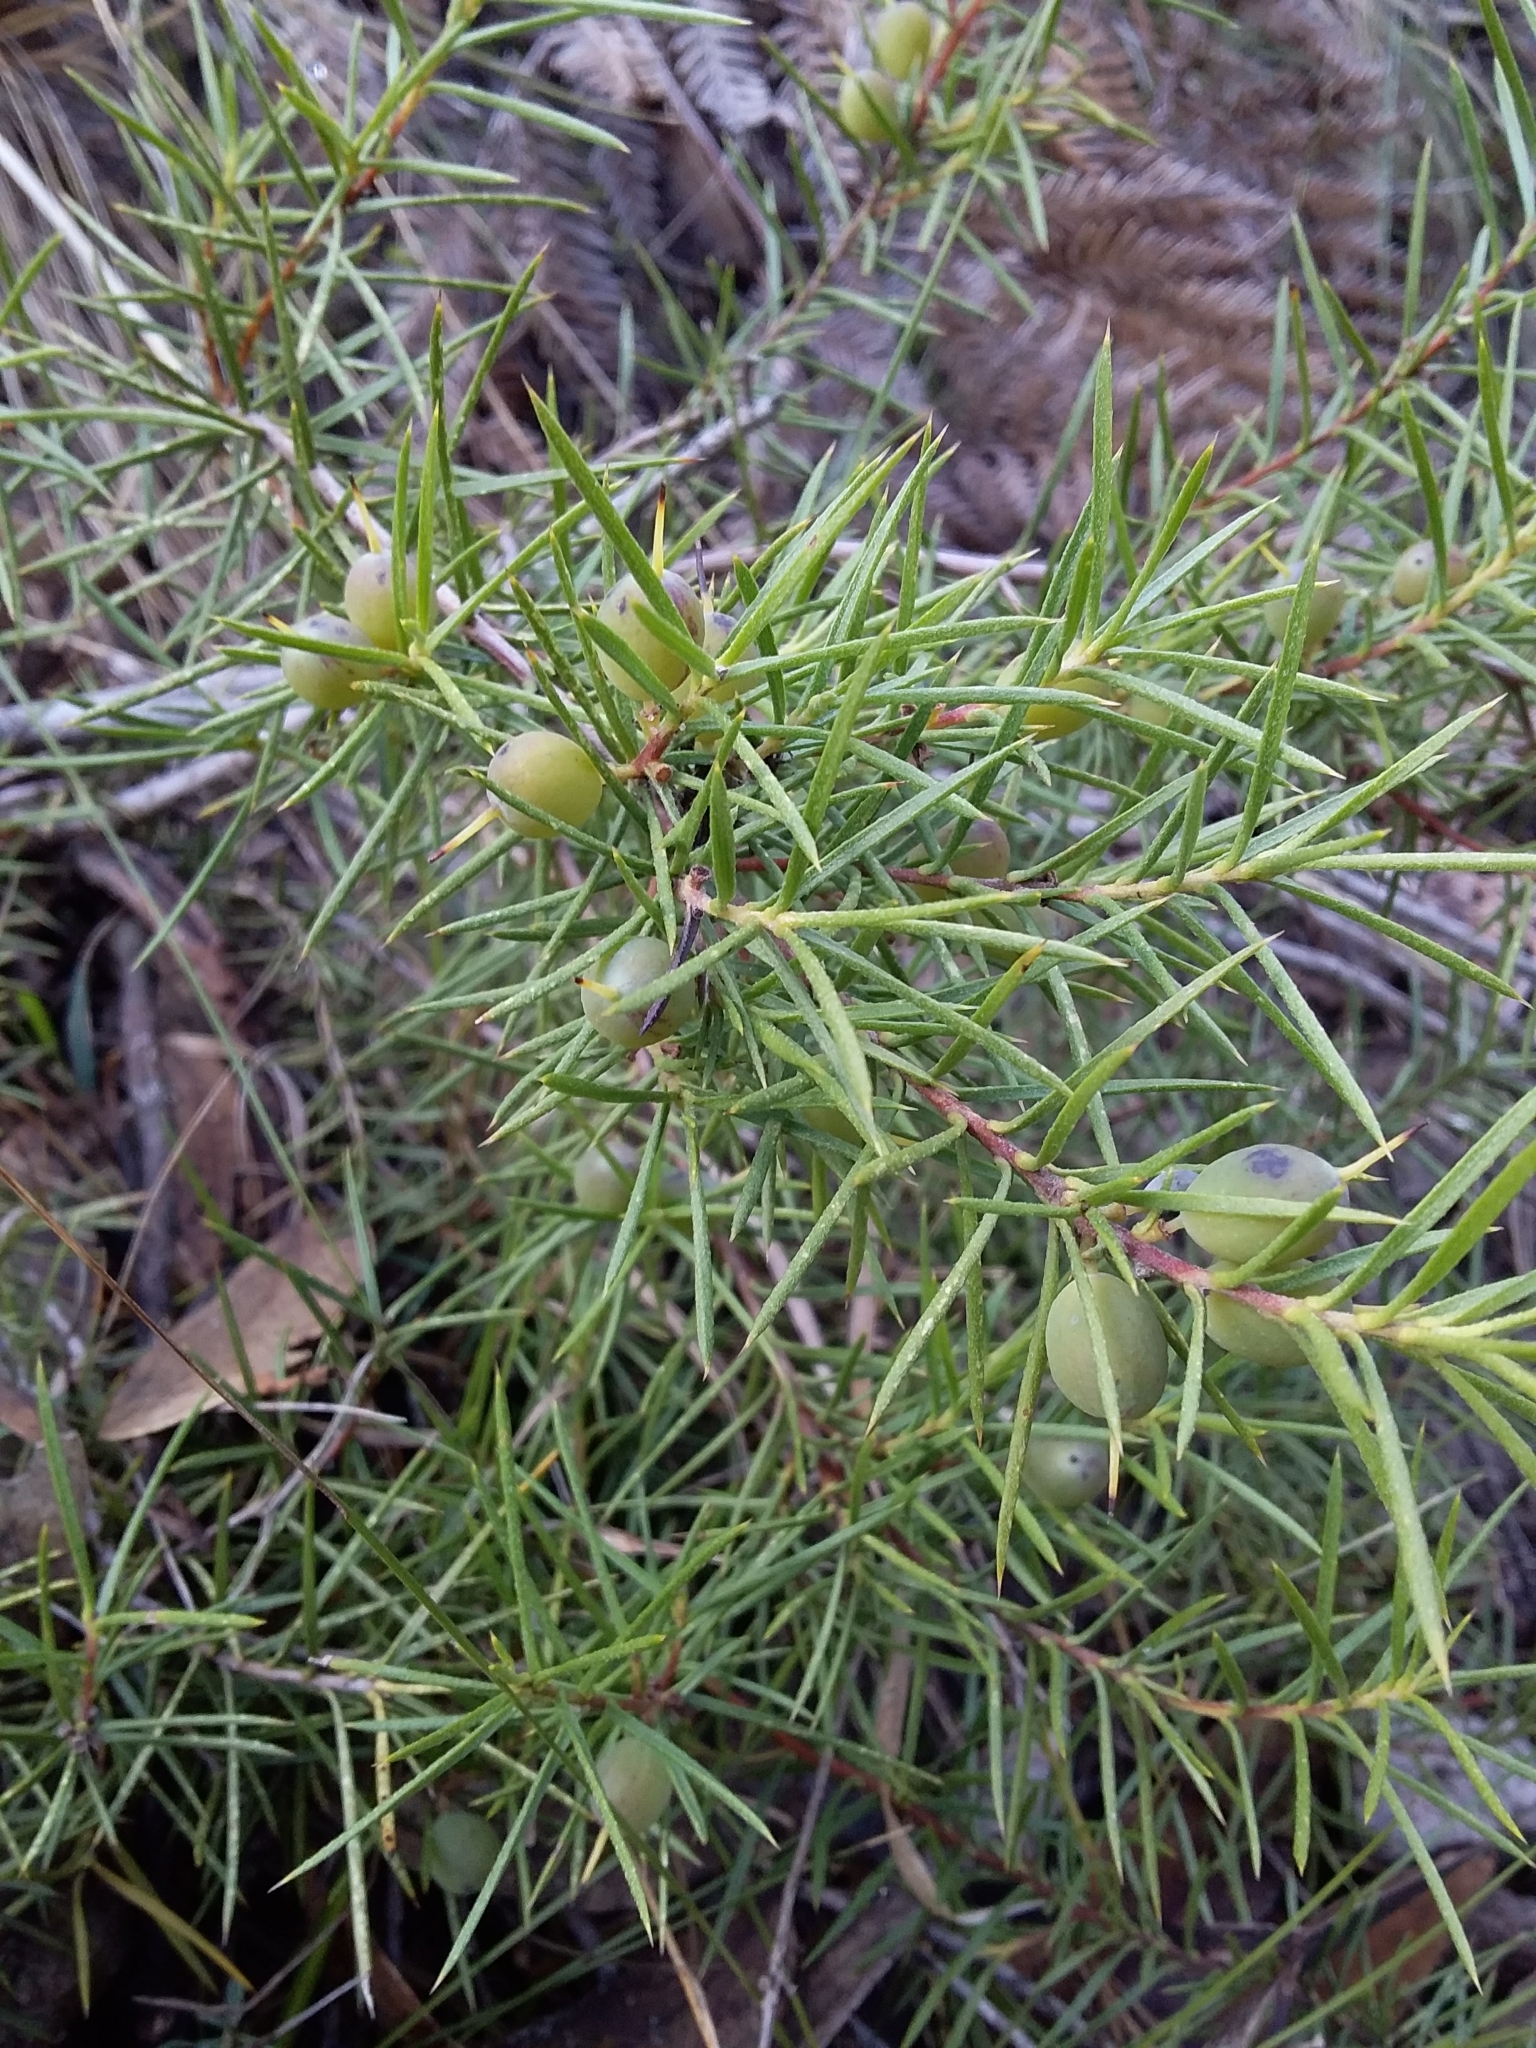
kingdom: Plantae
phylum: Tracheophyta
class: Magnoliopsida
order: Proteales
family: Proteaceae
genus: Persoonia
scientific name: Persoonia juniperina
